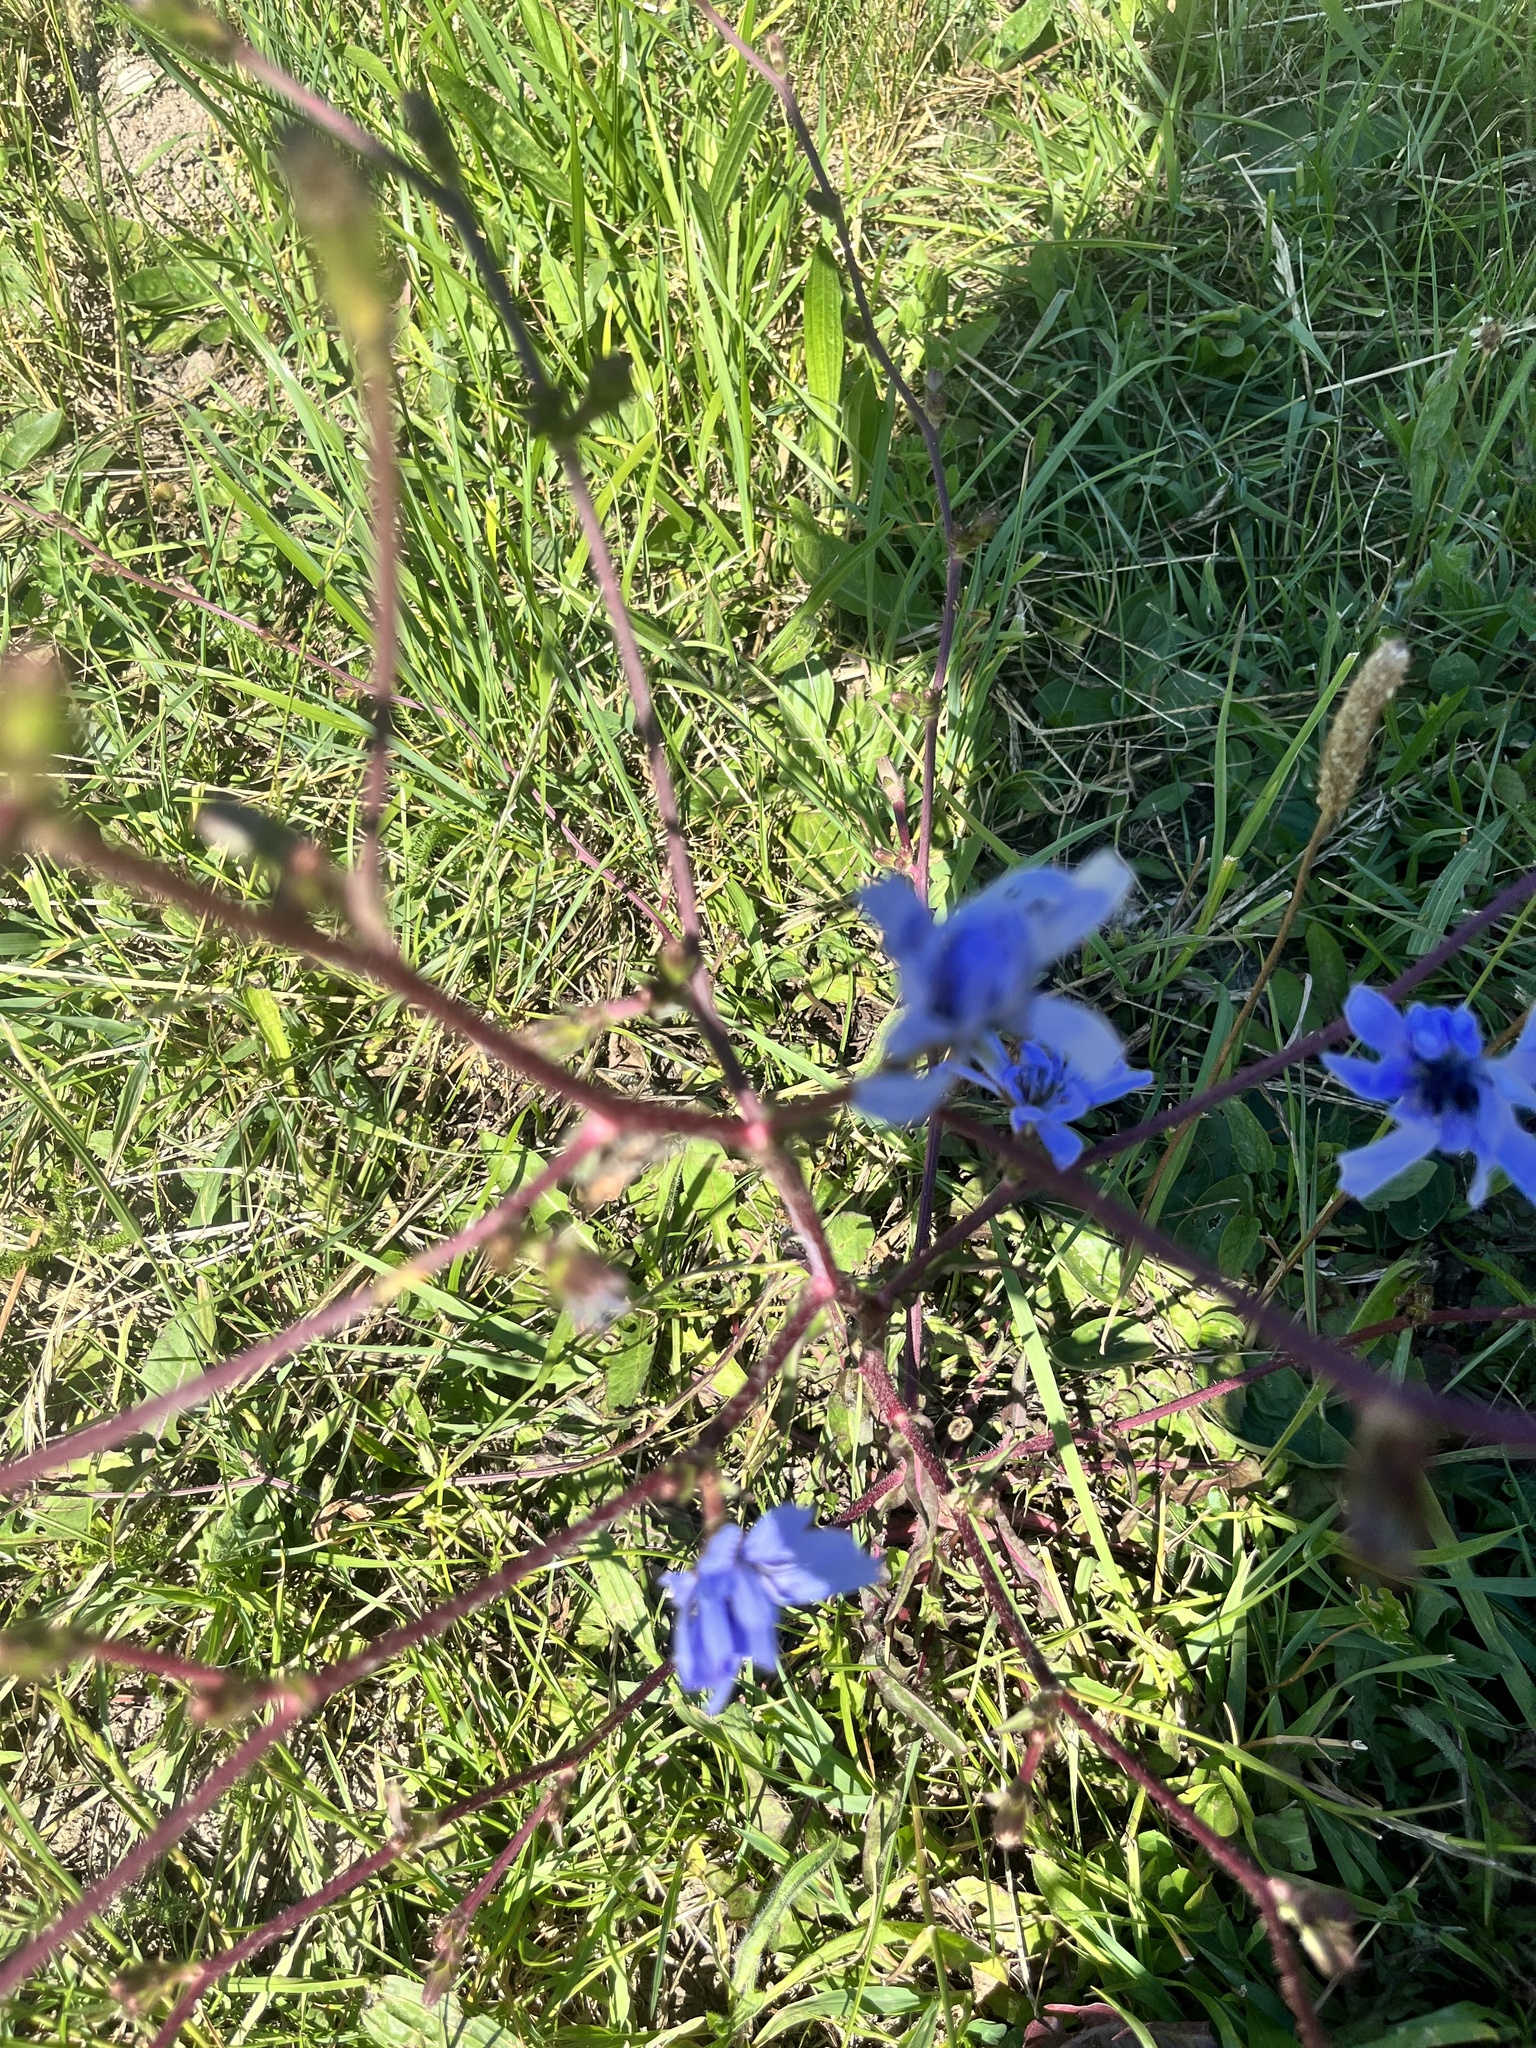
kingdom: Plantae
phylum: Tracheophyta
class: Magnoliopsida
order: Asterales
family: Asteraceae
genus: Cichorium
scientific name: Cichorium intybus
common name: Chicory
